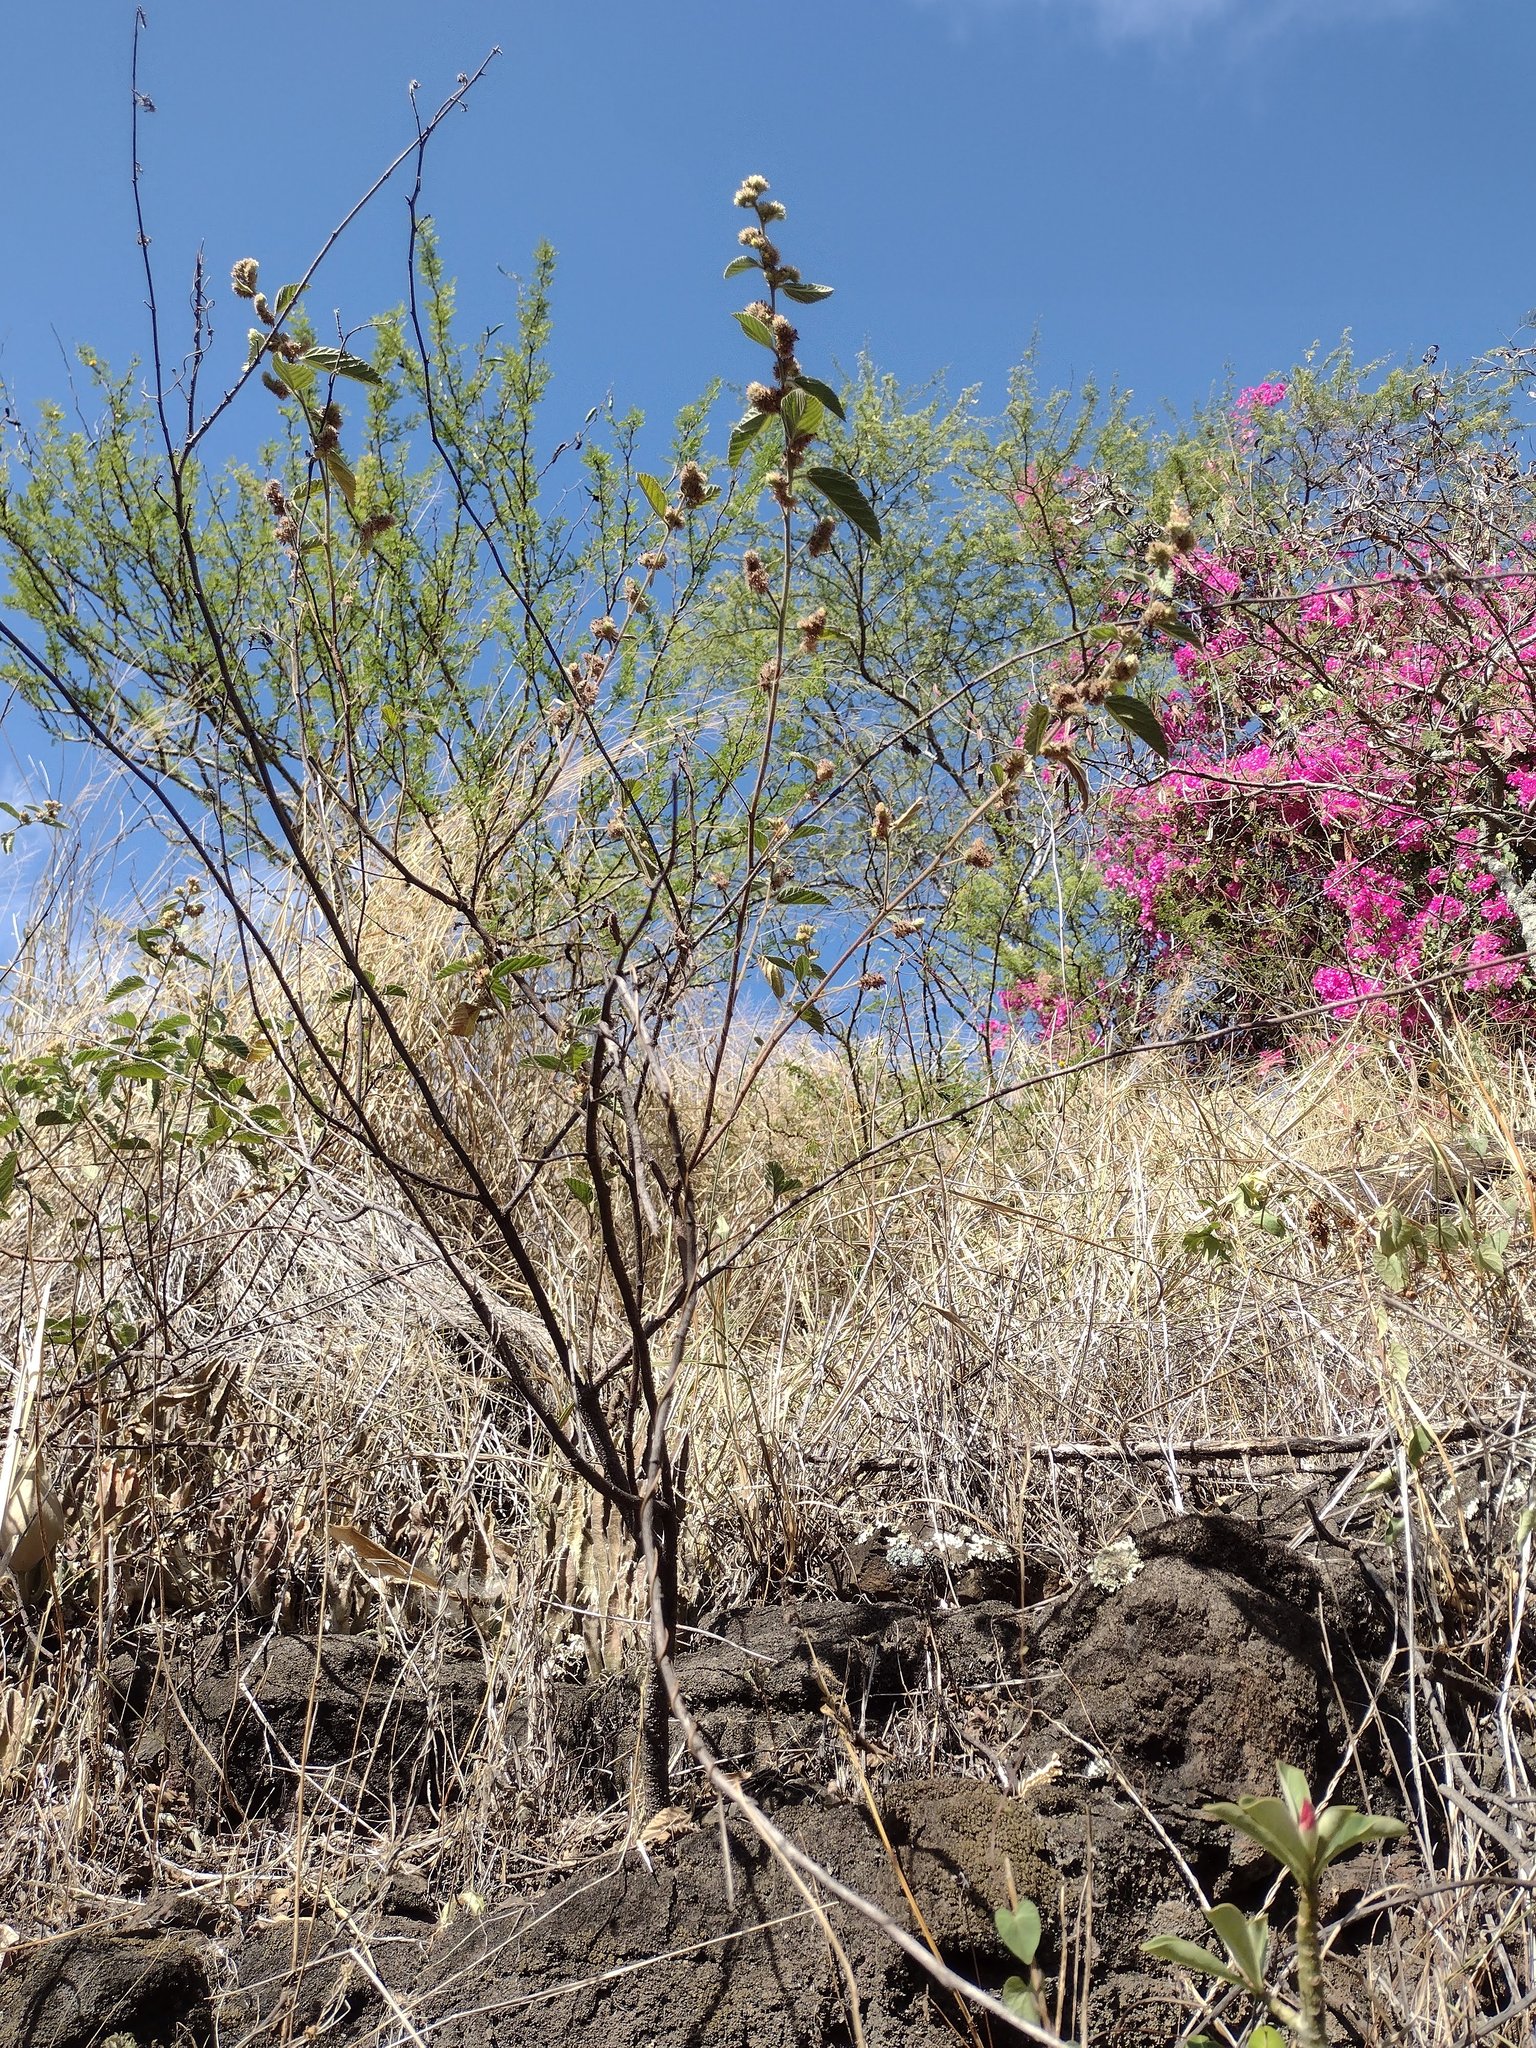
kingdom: Plantae
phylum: Tracheophyta
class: Magnoliopsida
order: Malvales
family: Malvaceae
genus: Waltheria
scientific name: Waltheria indica
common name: Leather-coat
